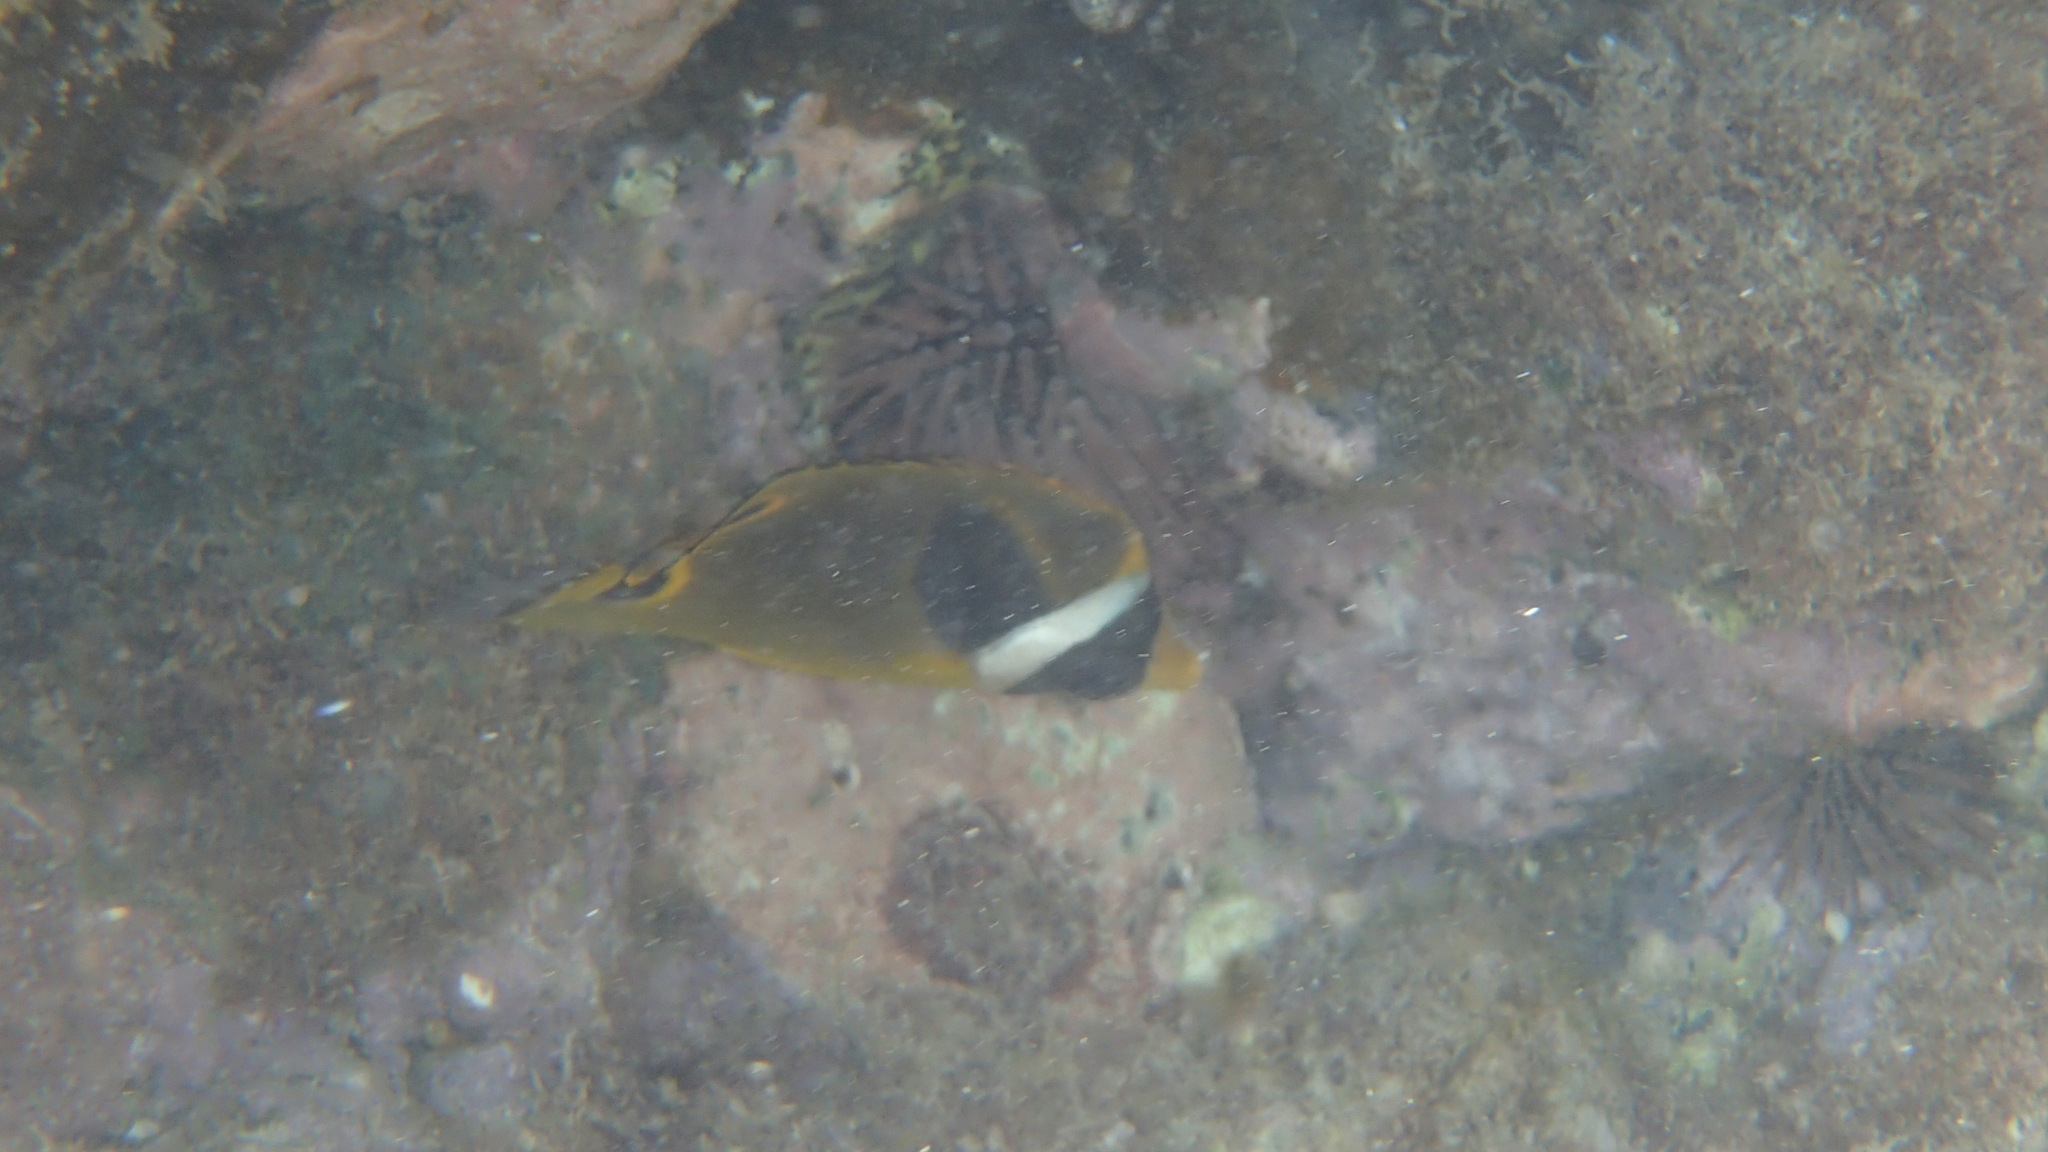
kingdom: Animalia
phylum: Chordata
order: Perciformes
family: Chaetodontidae
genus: Chaetodon
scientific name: Chaetodon lunula
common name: Raccoon butterflyfish
